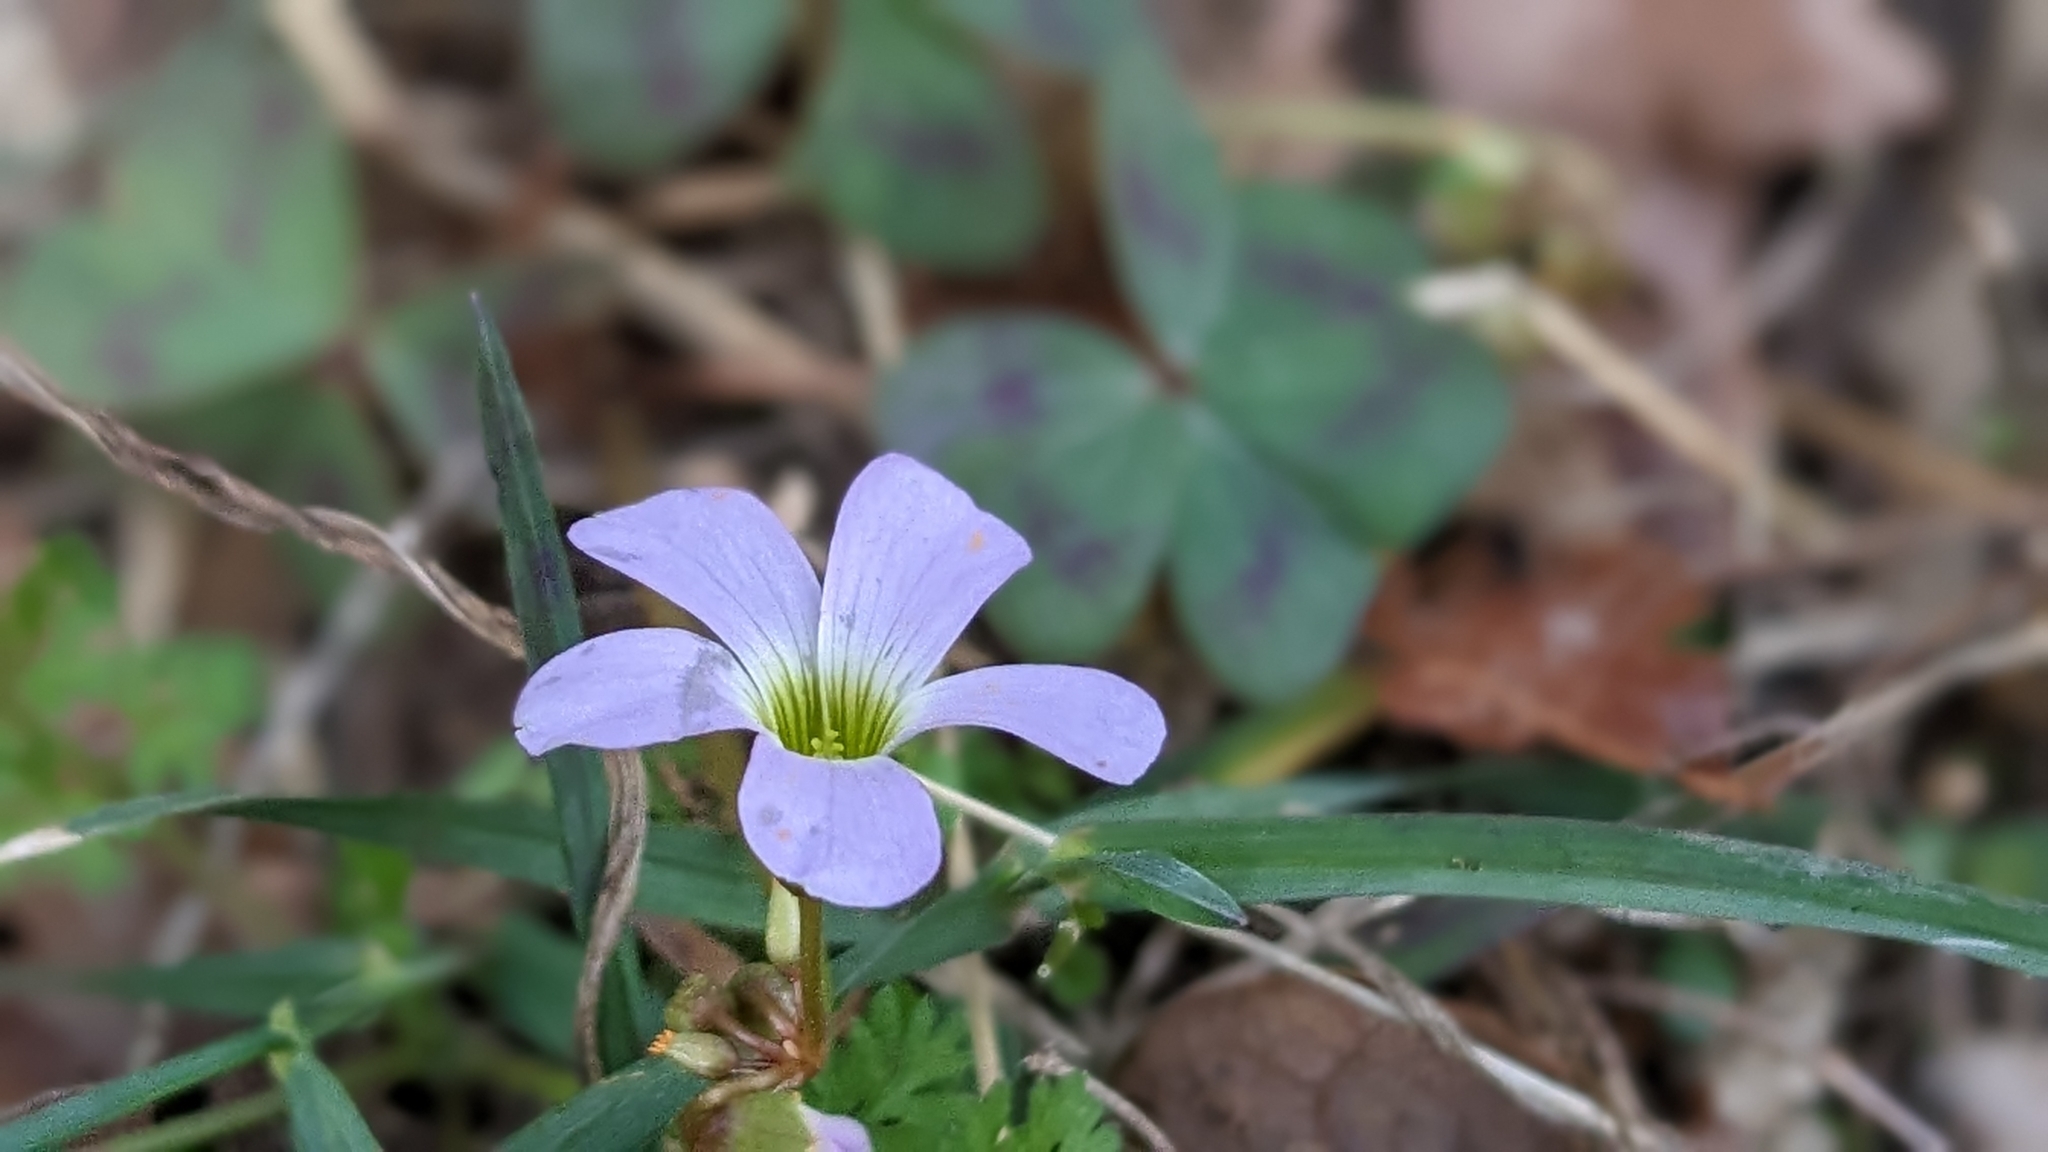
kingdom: Plantae
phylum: Tracheophyta
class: Magnoliopsida
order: Oxalidales
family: Oxalidaceae
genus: Oxalis
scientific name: Oxalis violacea
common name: Violet wood-sorrel
